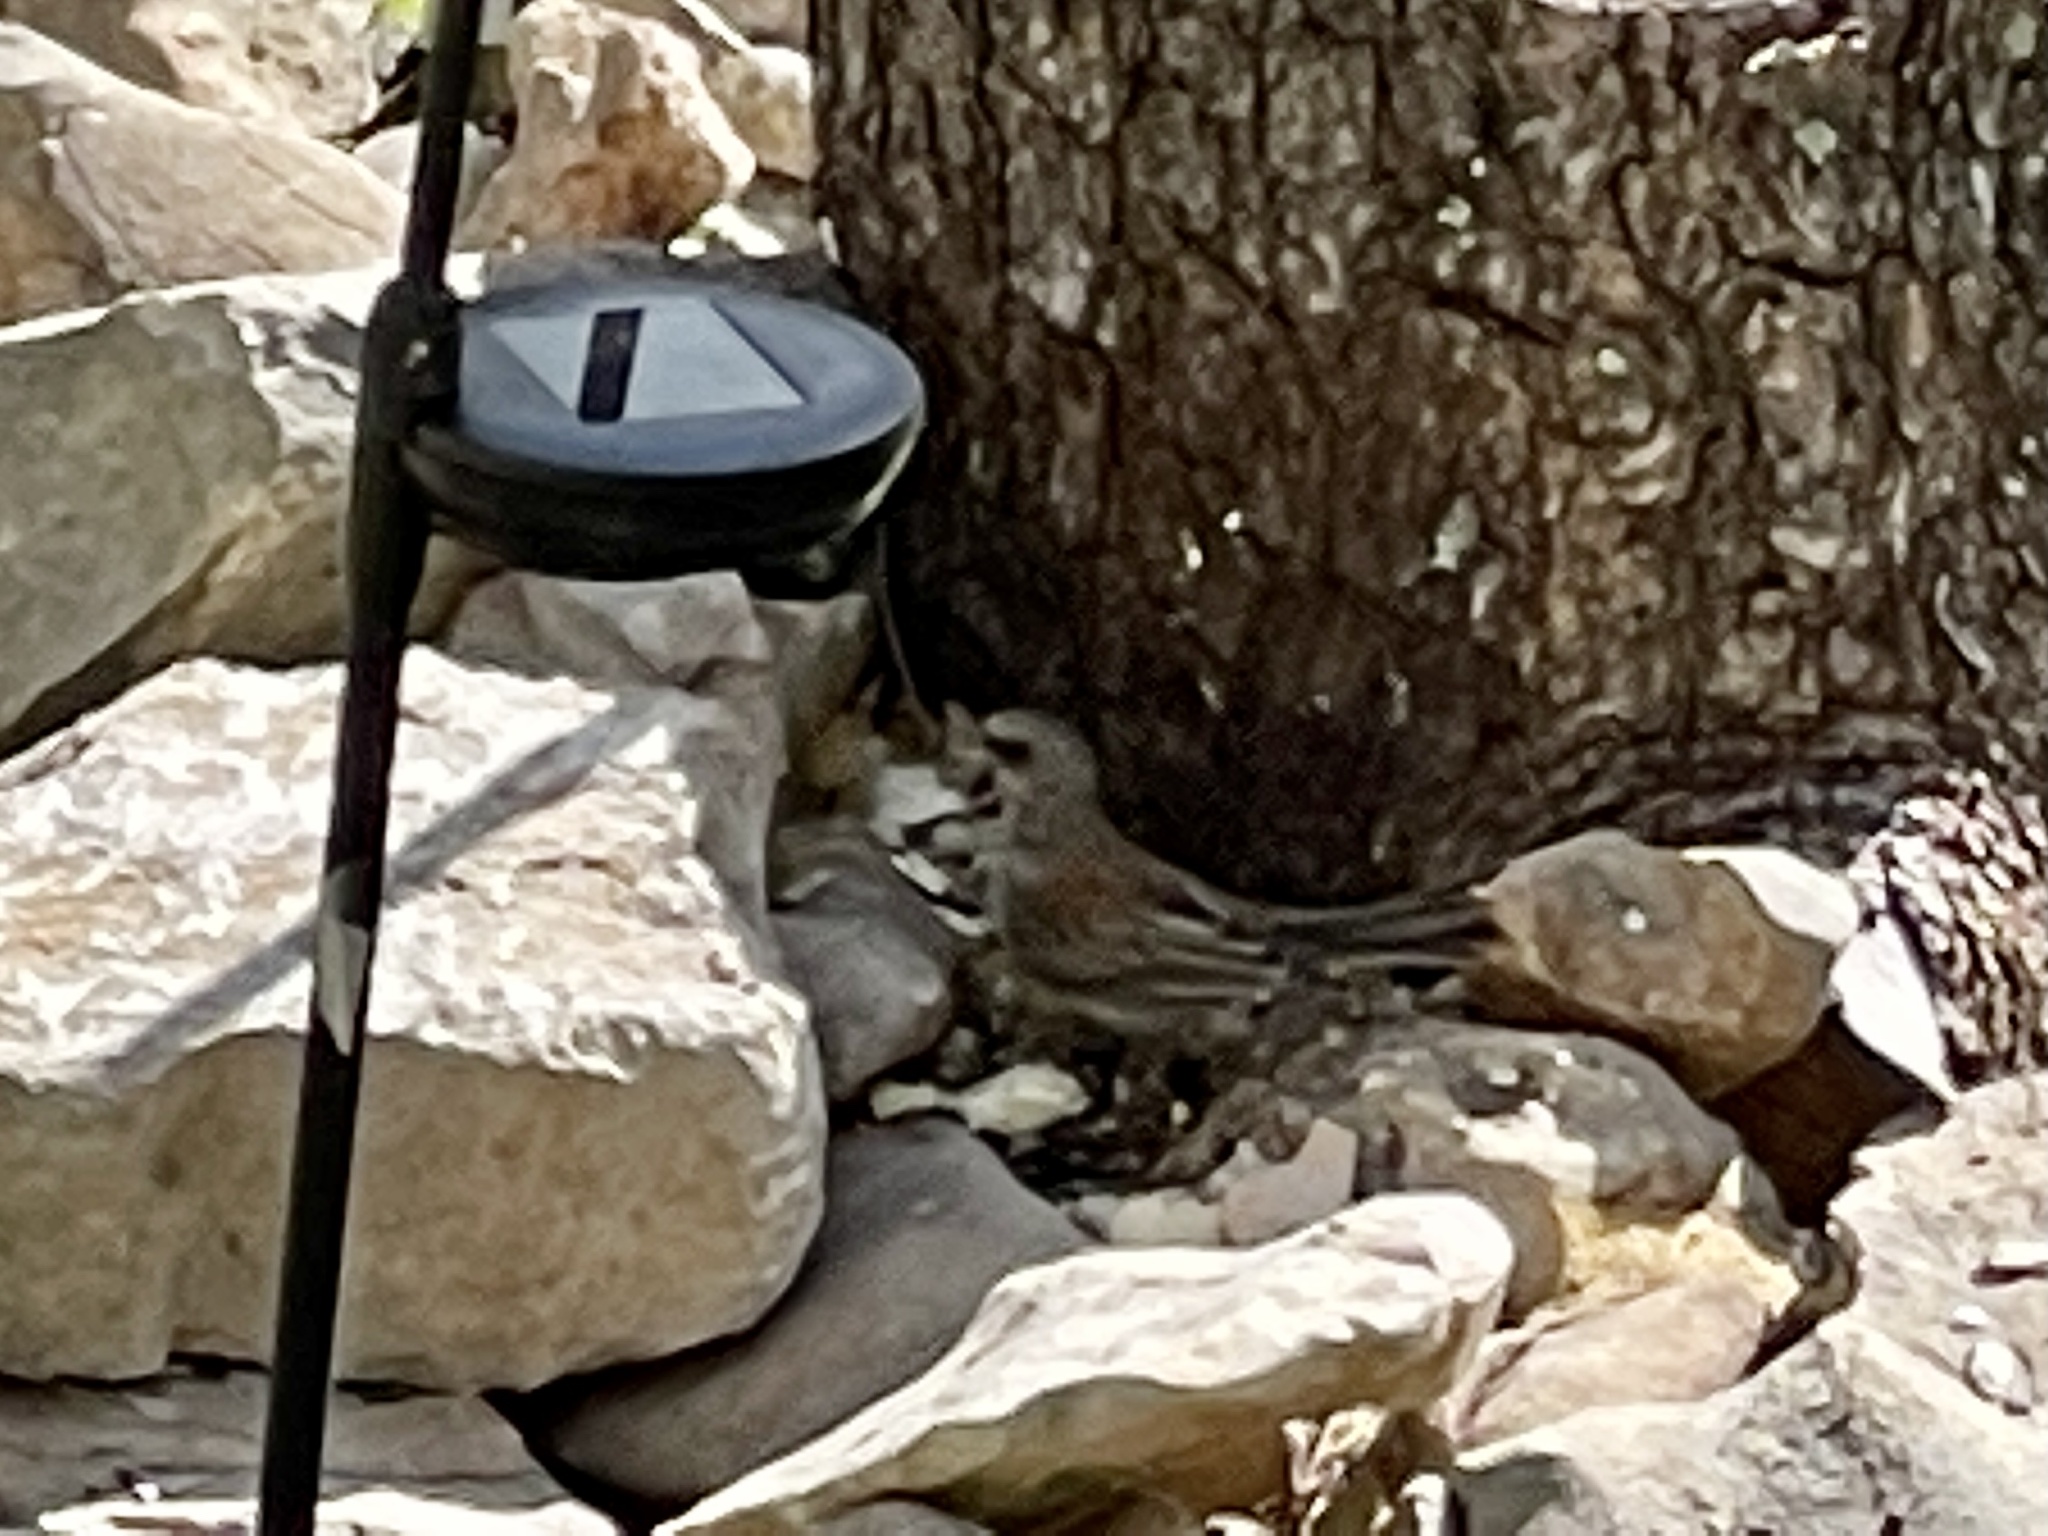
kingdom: Animalia
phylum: Chordata
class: Aves
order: Passeriformes
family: Passerellidae
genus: Junco
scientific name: Junco hyemalis
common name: Dark-eyed junco
